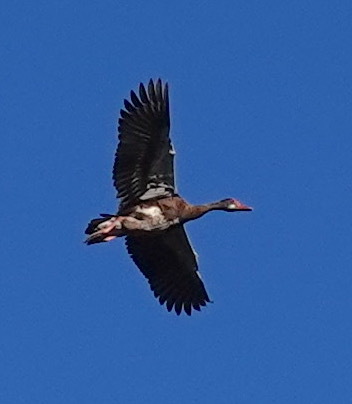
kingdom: Animalia
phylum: Chordata
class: Aves
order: Anseriformes
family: Anatidae
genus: Plectropterus
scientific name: Plectropterus gambensis
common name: Spur-winged goose
